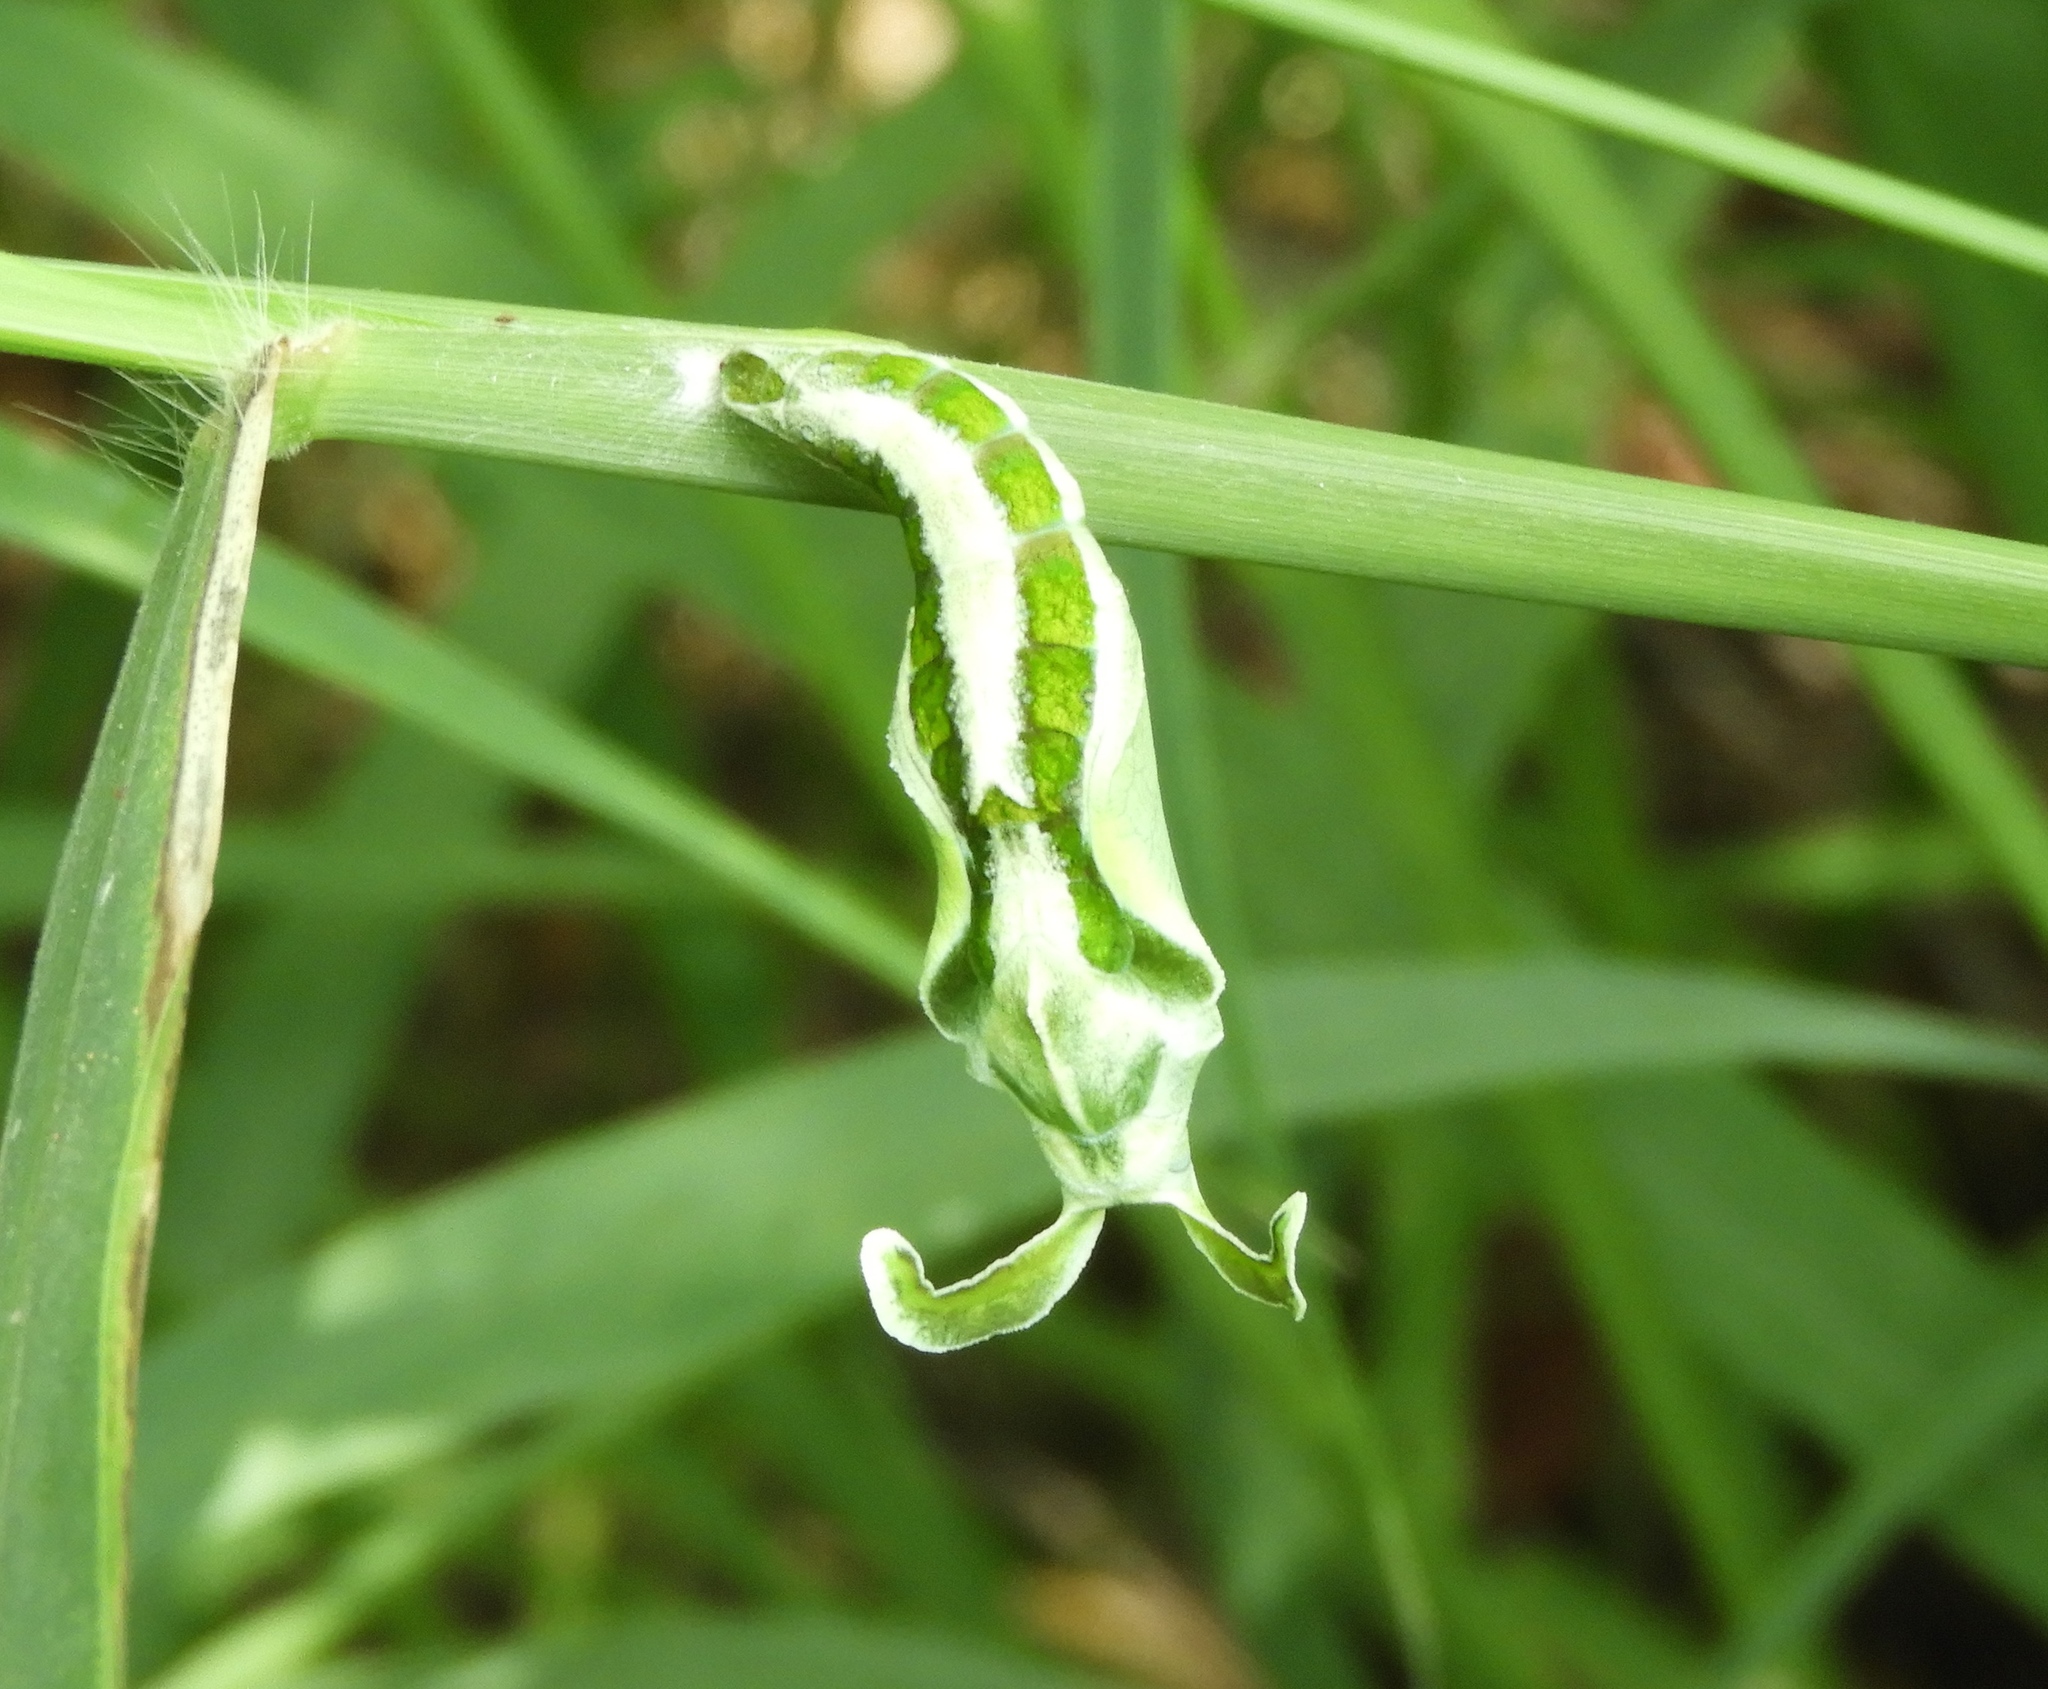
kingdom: Animalia
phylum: Arthropoda
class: Insecta
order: Lepidoptera
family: Nymphalidae
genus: Hamadryas
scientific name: Hamadryas guatemalena
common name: Guatemalan cracker
